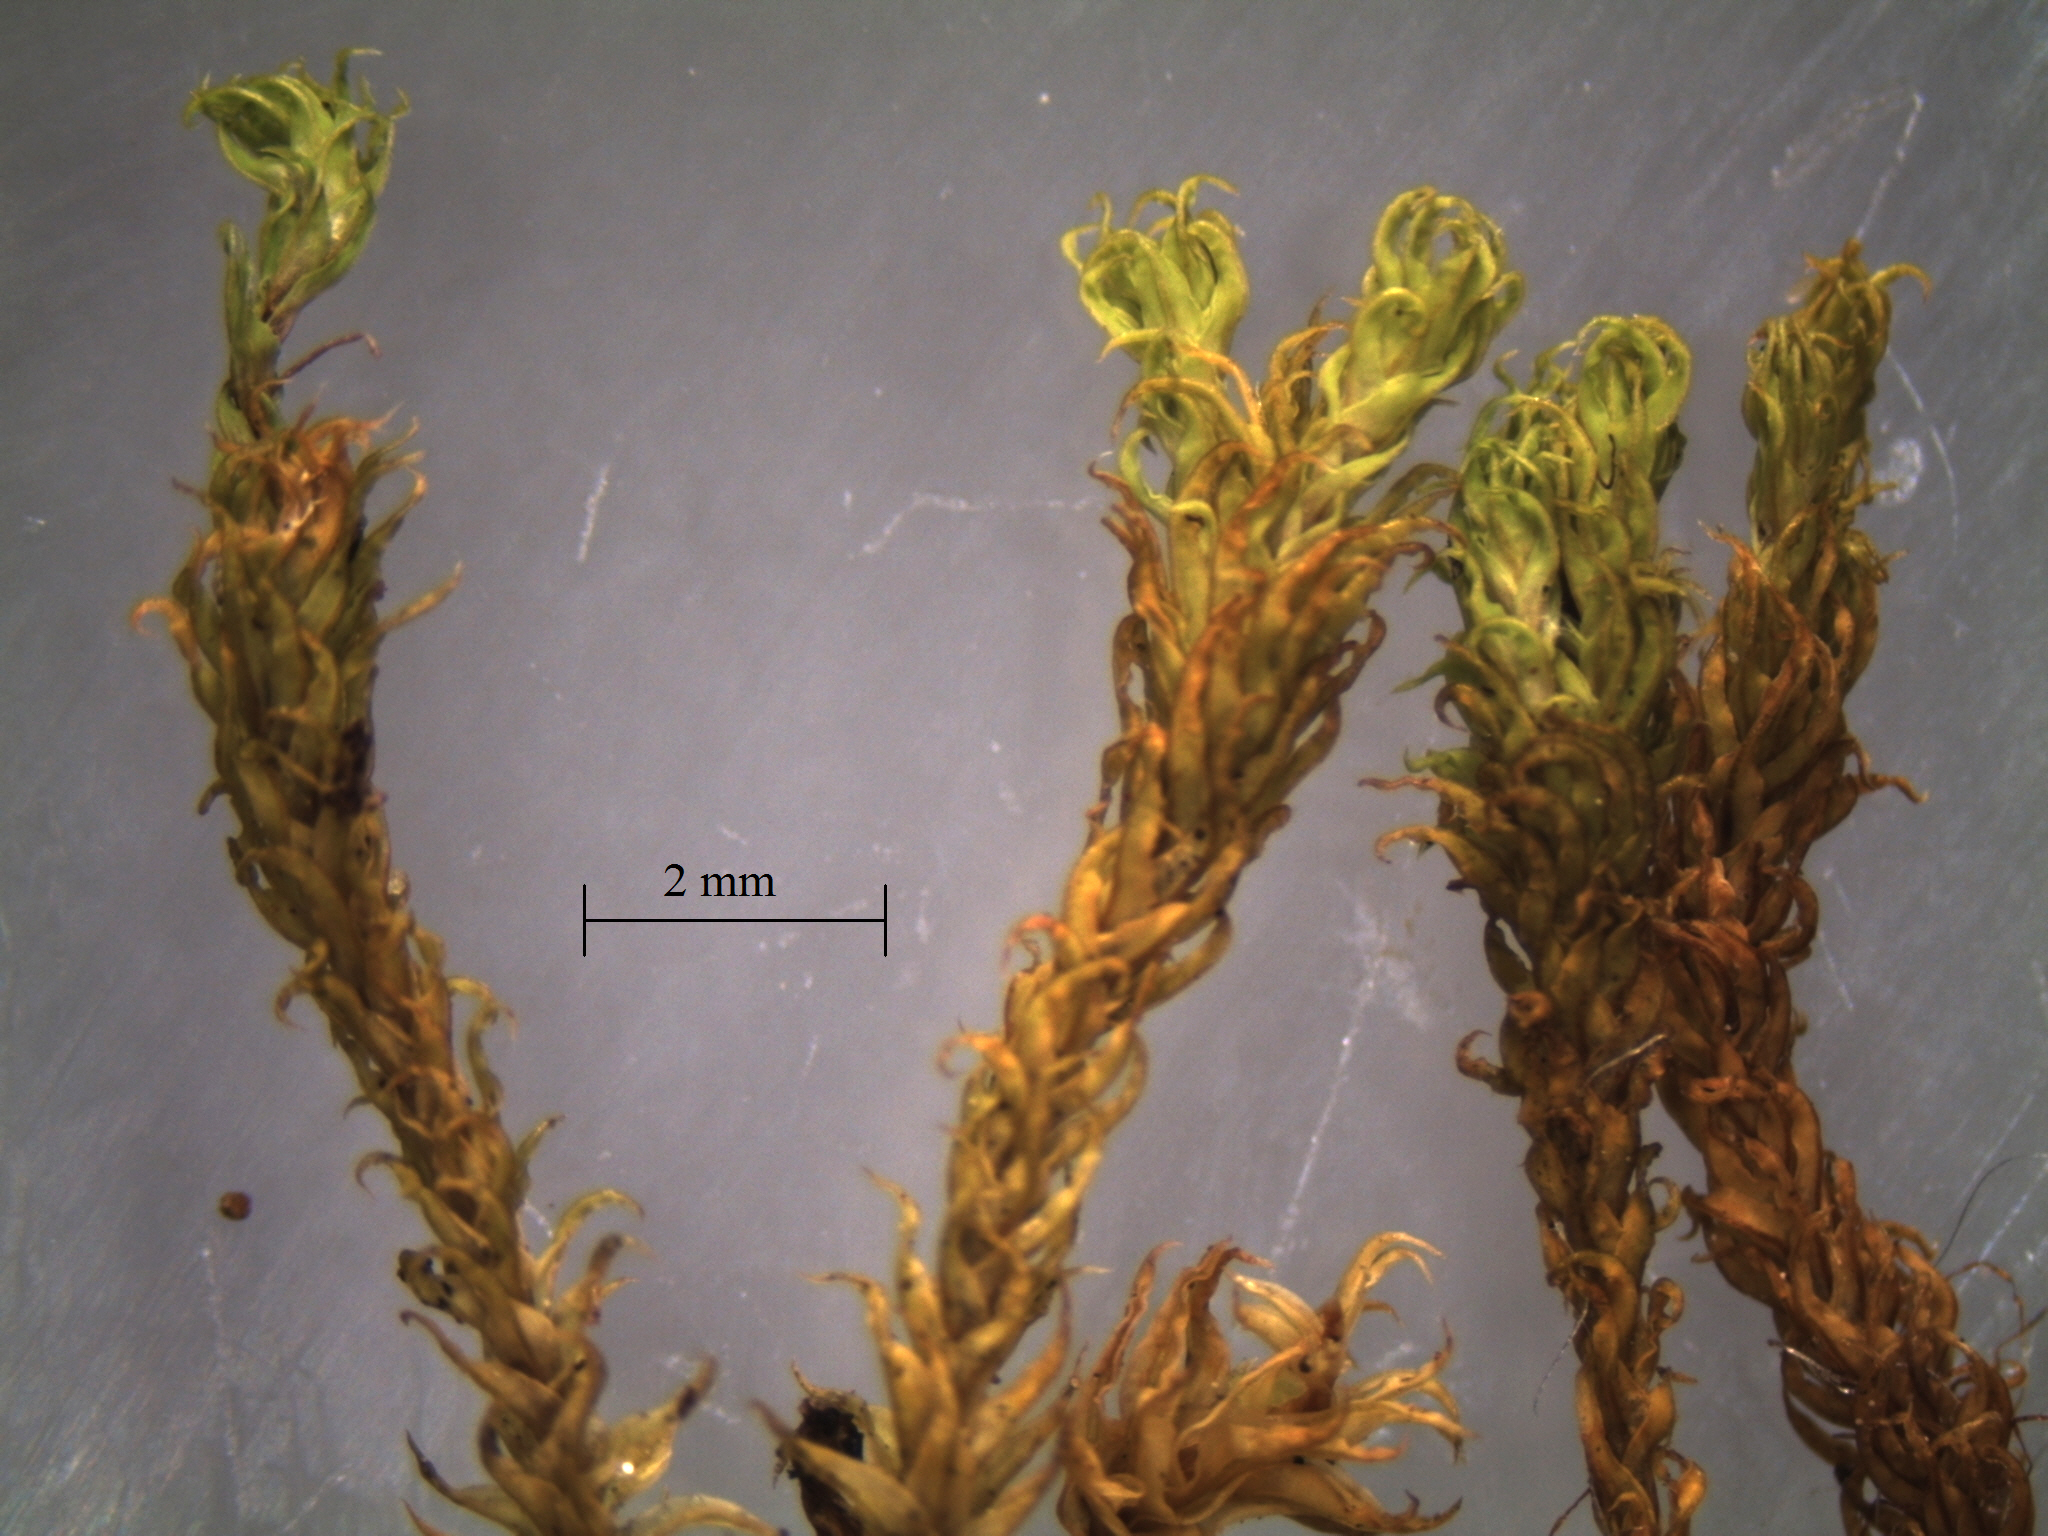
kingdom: Plantae
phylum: Bryophyta
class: Bryopsida
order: Pottiales
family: Pottiaceae
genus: Triquetrella
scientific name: Triquetrella papillata
